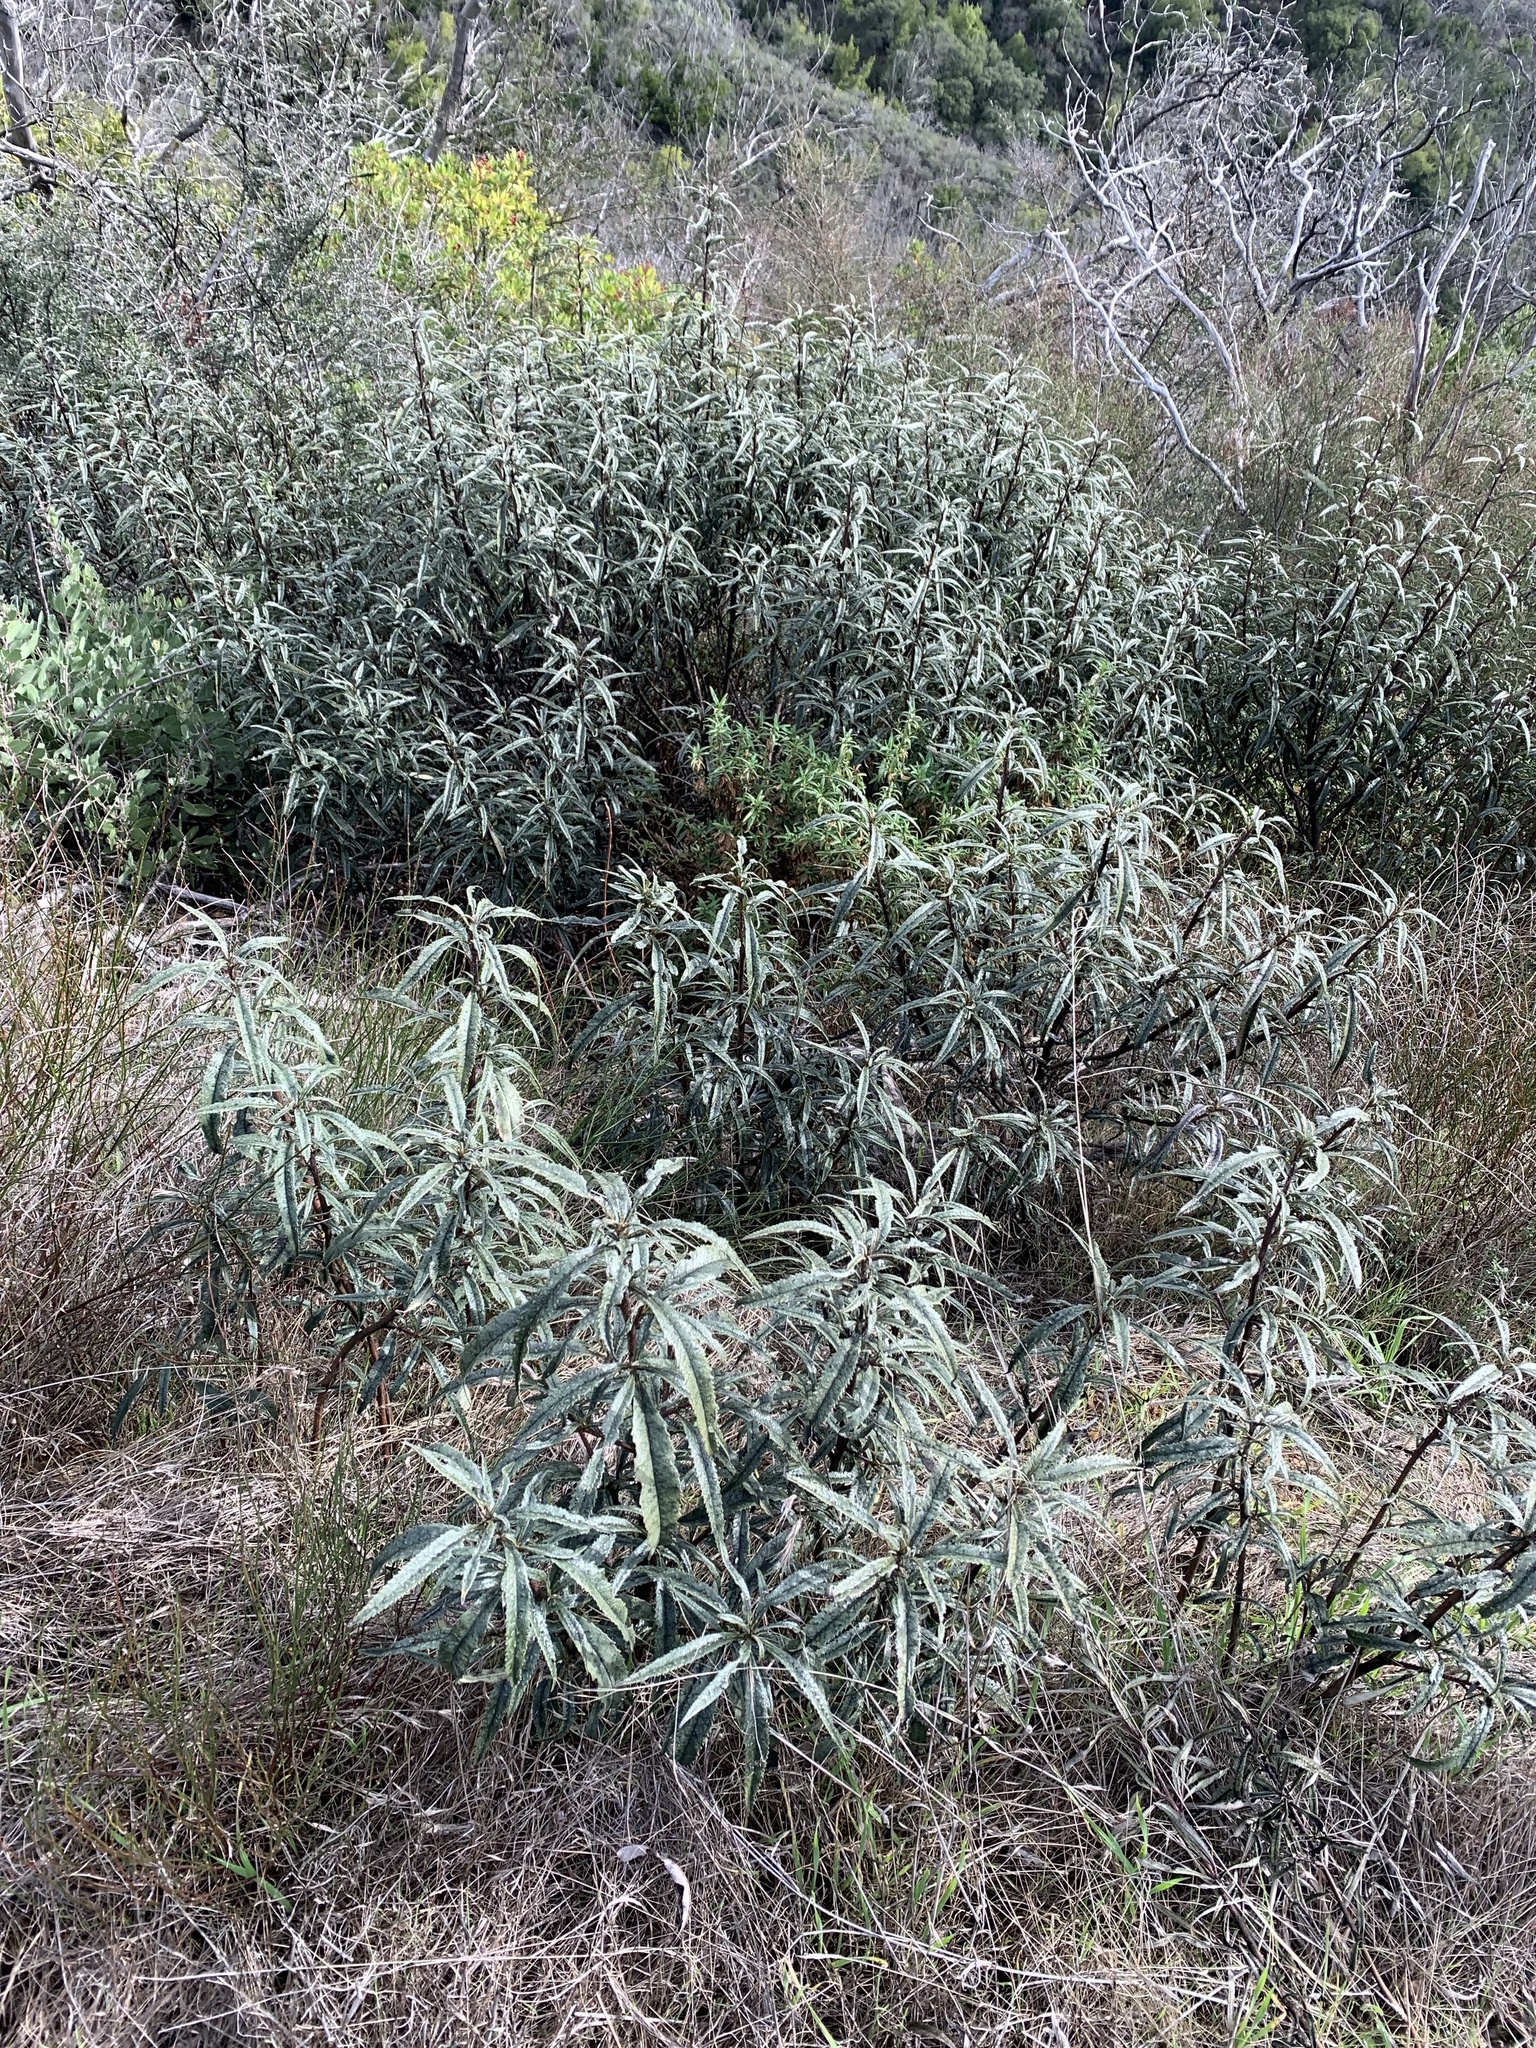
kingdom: Plantae
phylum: Tracheophyta
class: Magnoliopsida
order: Boraginales
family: Namaceae
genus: Eriodictyon
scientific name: Eriodictyon californicum
